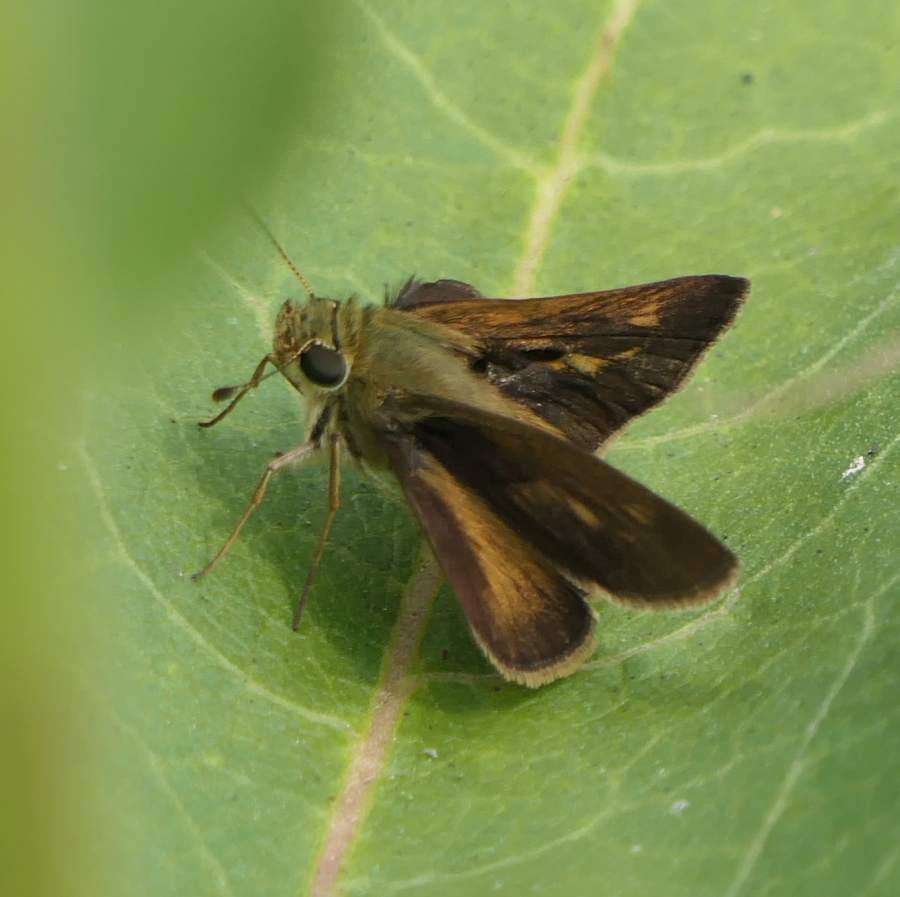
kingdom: Animalia
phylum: Arthropoda
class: Insecta
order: Lepidoptera
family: Hesperiidae
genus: Polites
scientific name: Polites egeremet
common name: Northern broken-dash
